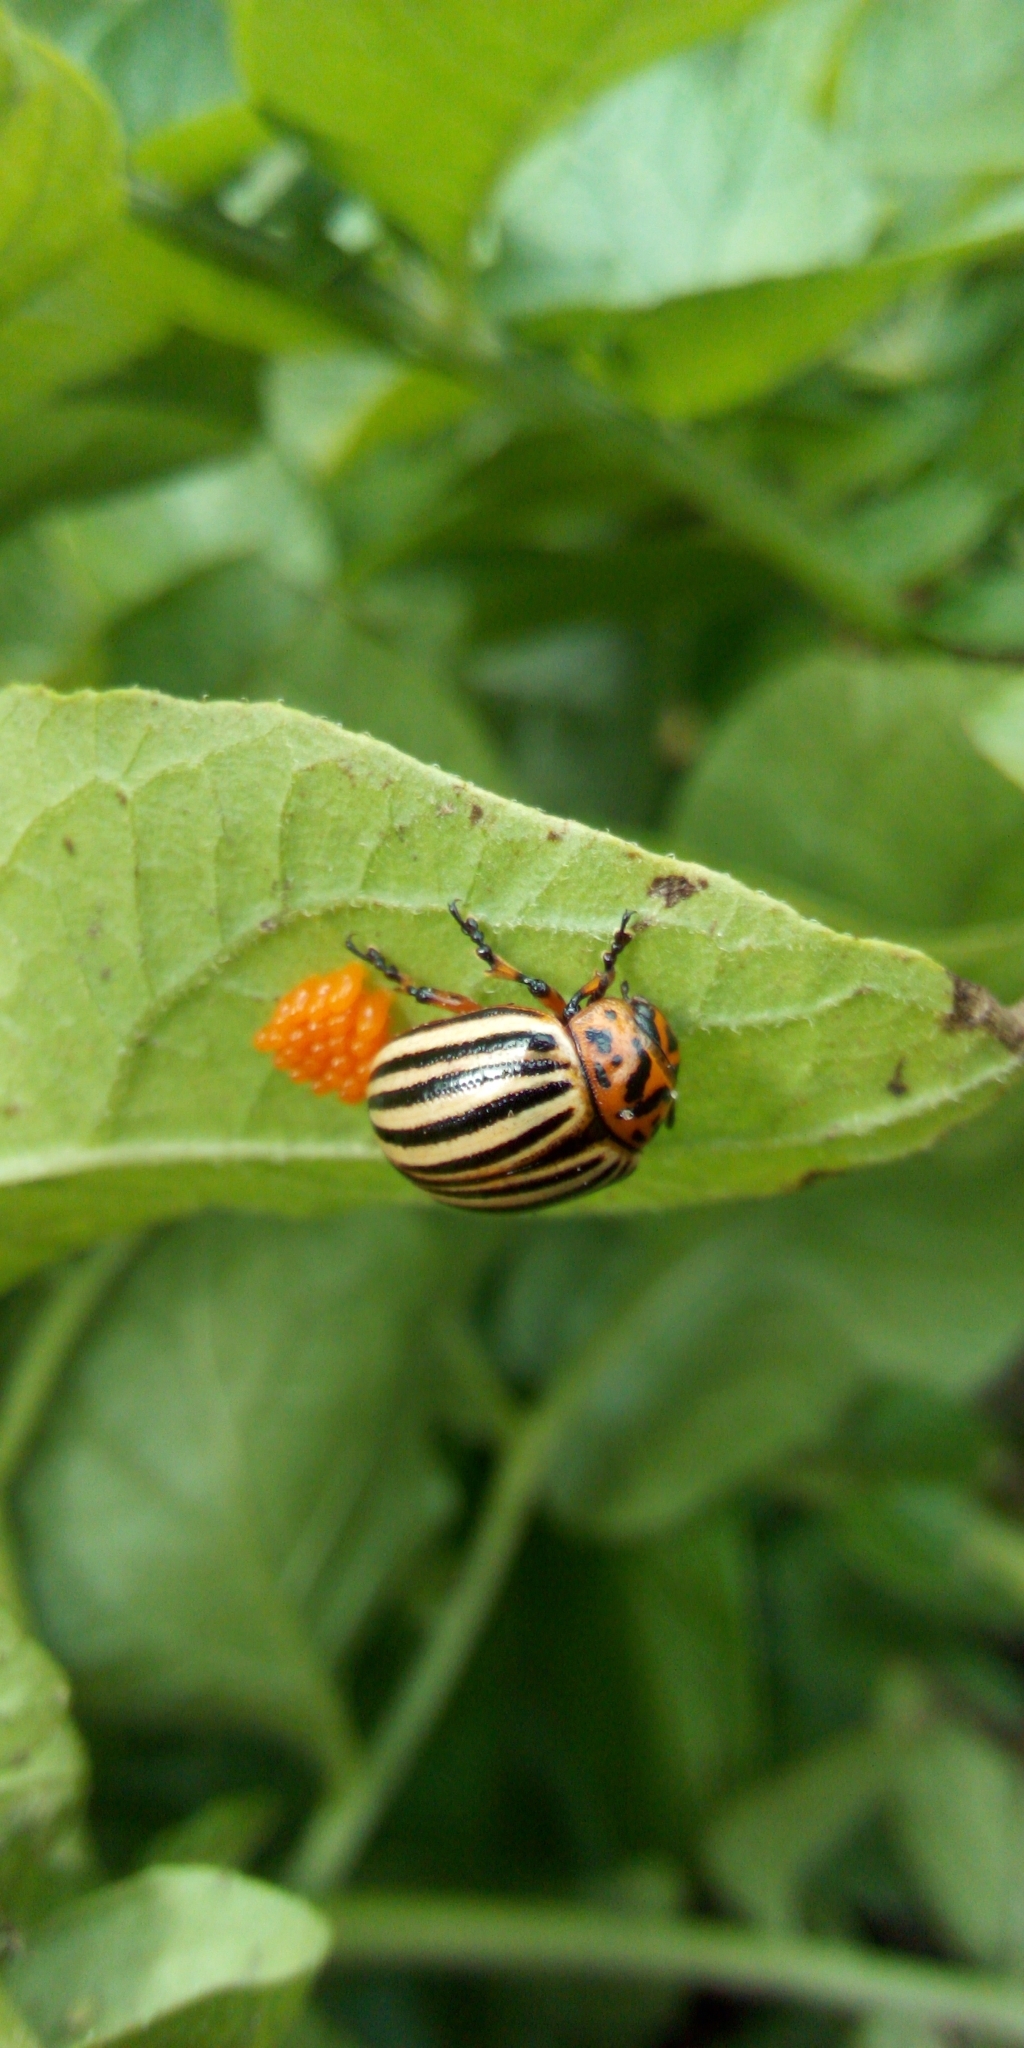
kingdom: Animalia
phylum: Arthropoda
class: Insecta
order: Coleoptera
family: Chrysomelidae
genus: Leptinotarsa
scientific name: Leptinotarsa decemlineata
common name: Colorado potato beetle
